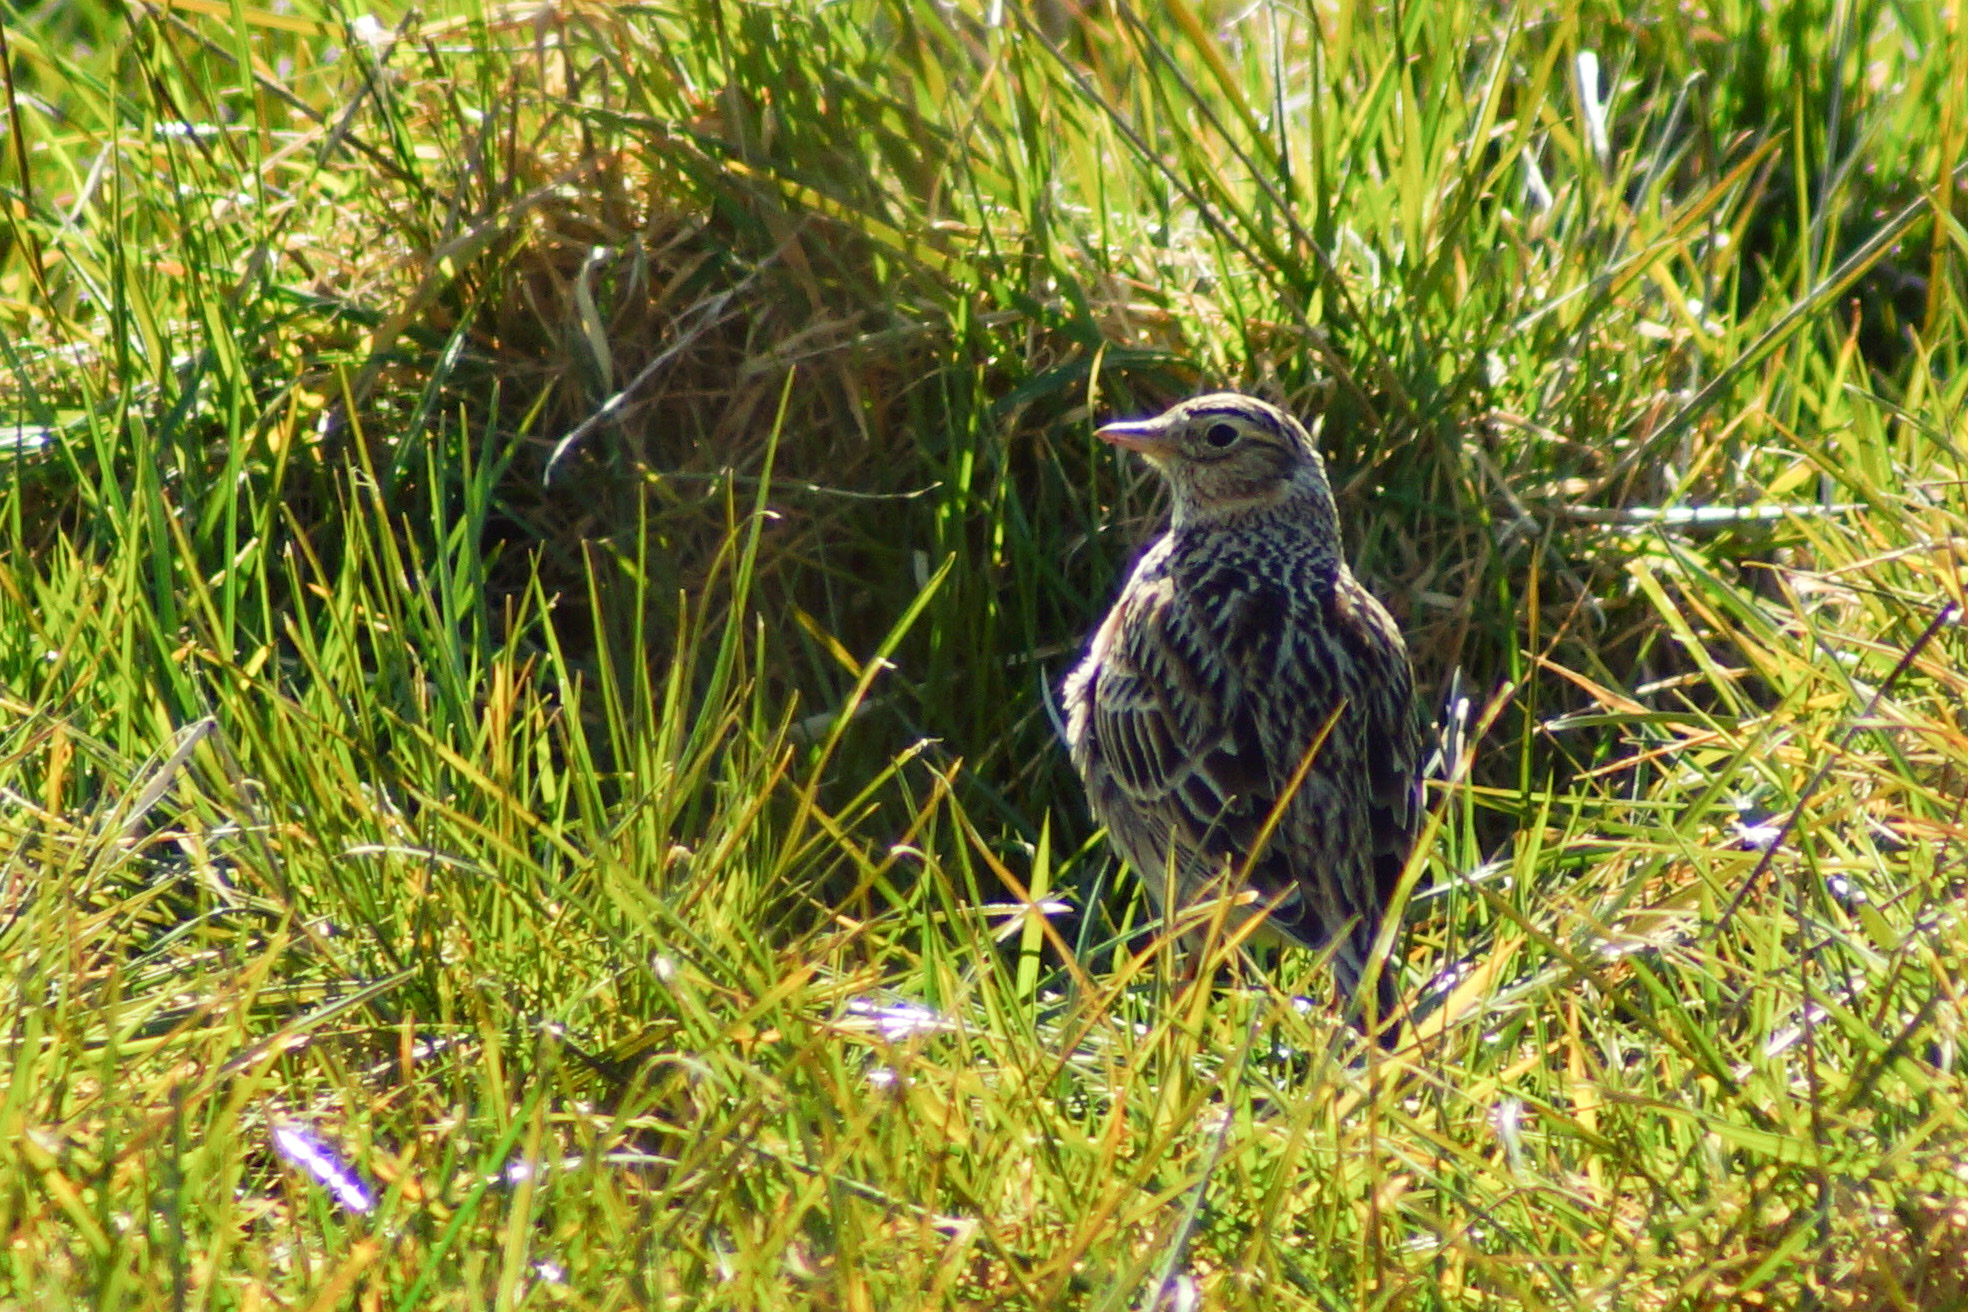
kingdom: Animalia
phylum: Chordata
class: Aves
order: Passeriformes
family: Alaudidae
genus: Alauda
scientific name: Alauda arvensis
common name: Eurasian skylark
